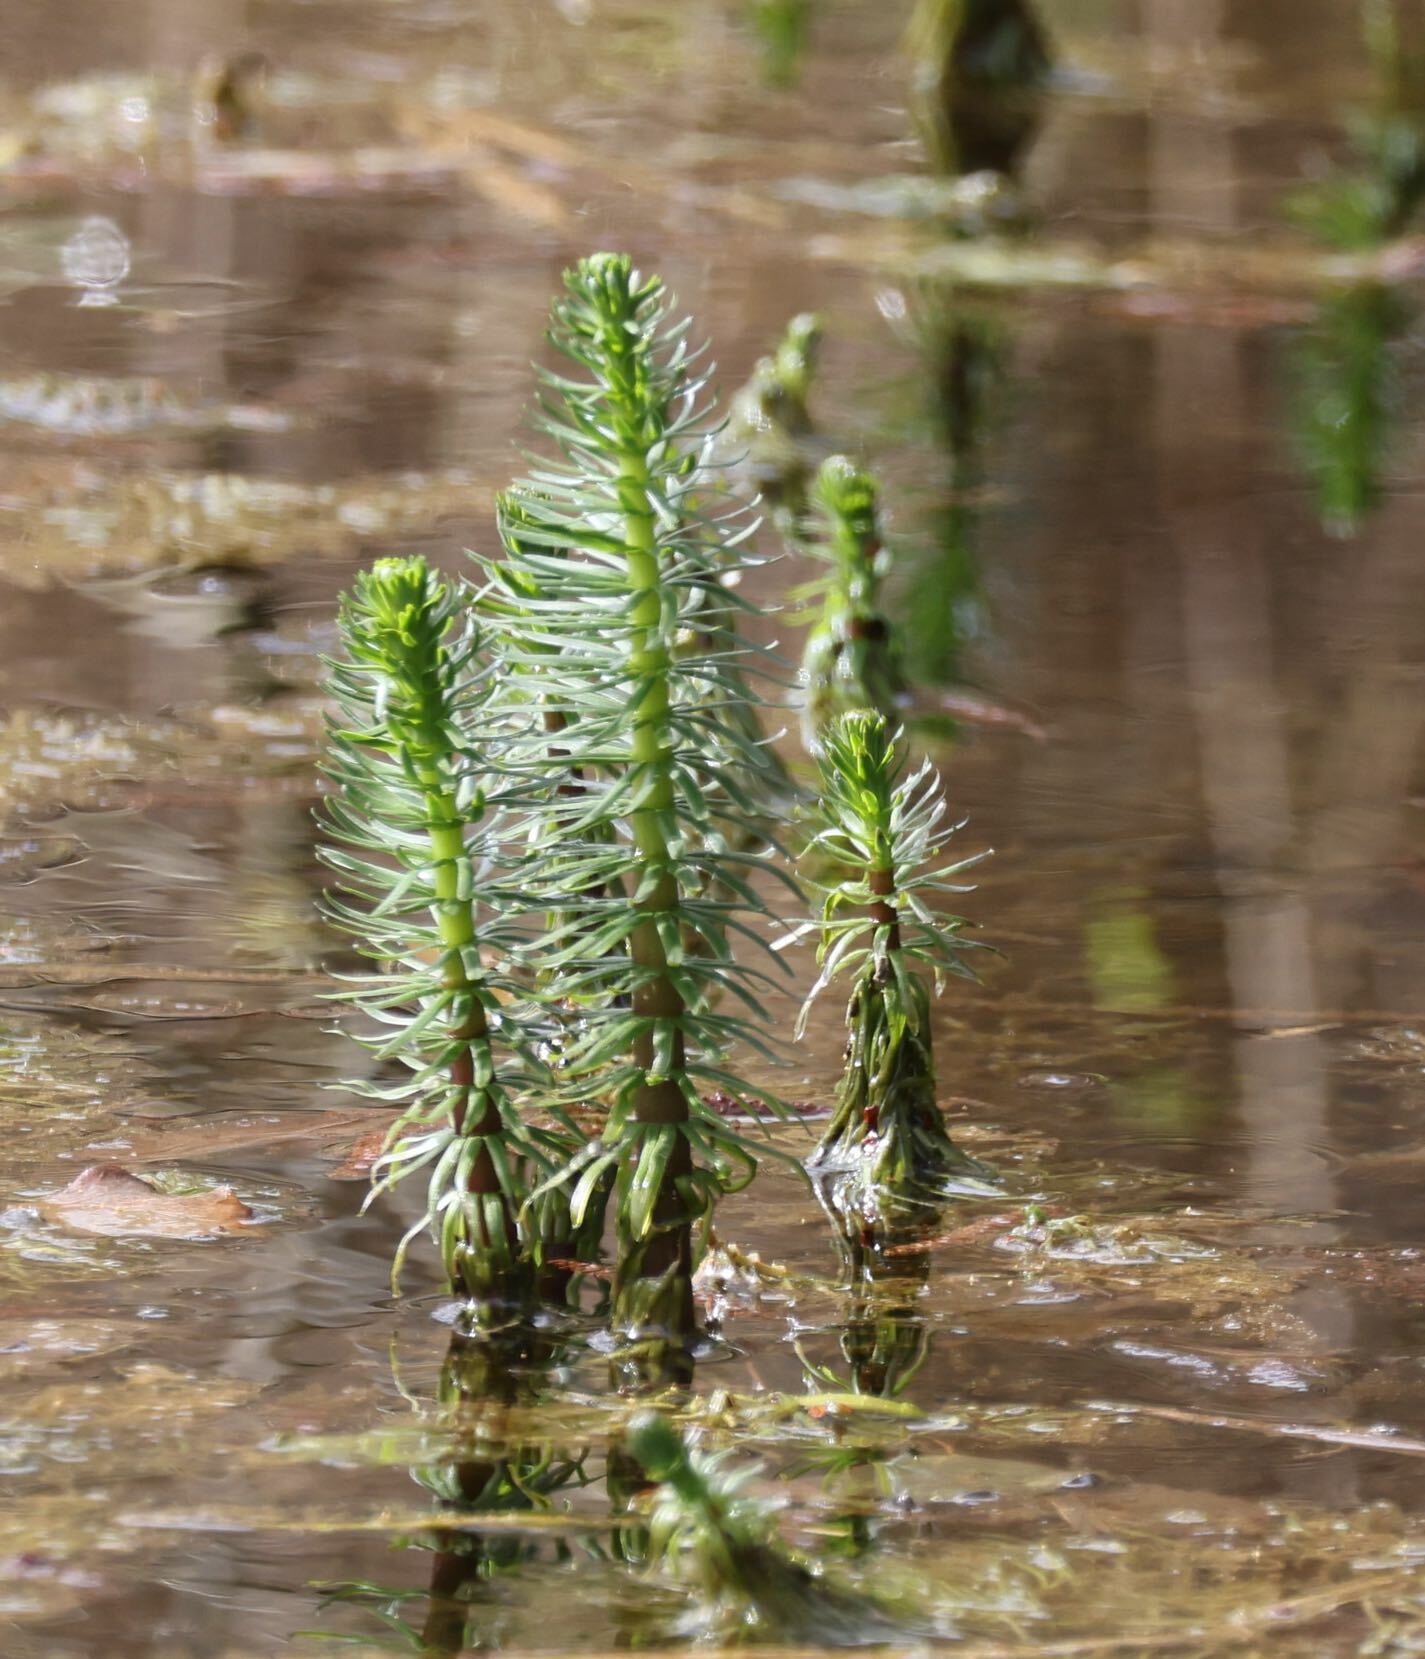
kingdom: Plantae
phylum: Tracheophyta
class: Magnoliopsida
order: Lamiales
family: Plantaginaceae
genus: Hippuris
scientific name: Hippuris vulgaris
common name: Mare's-tail
